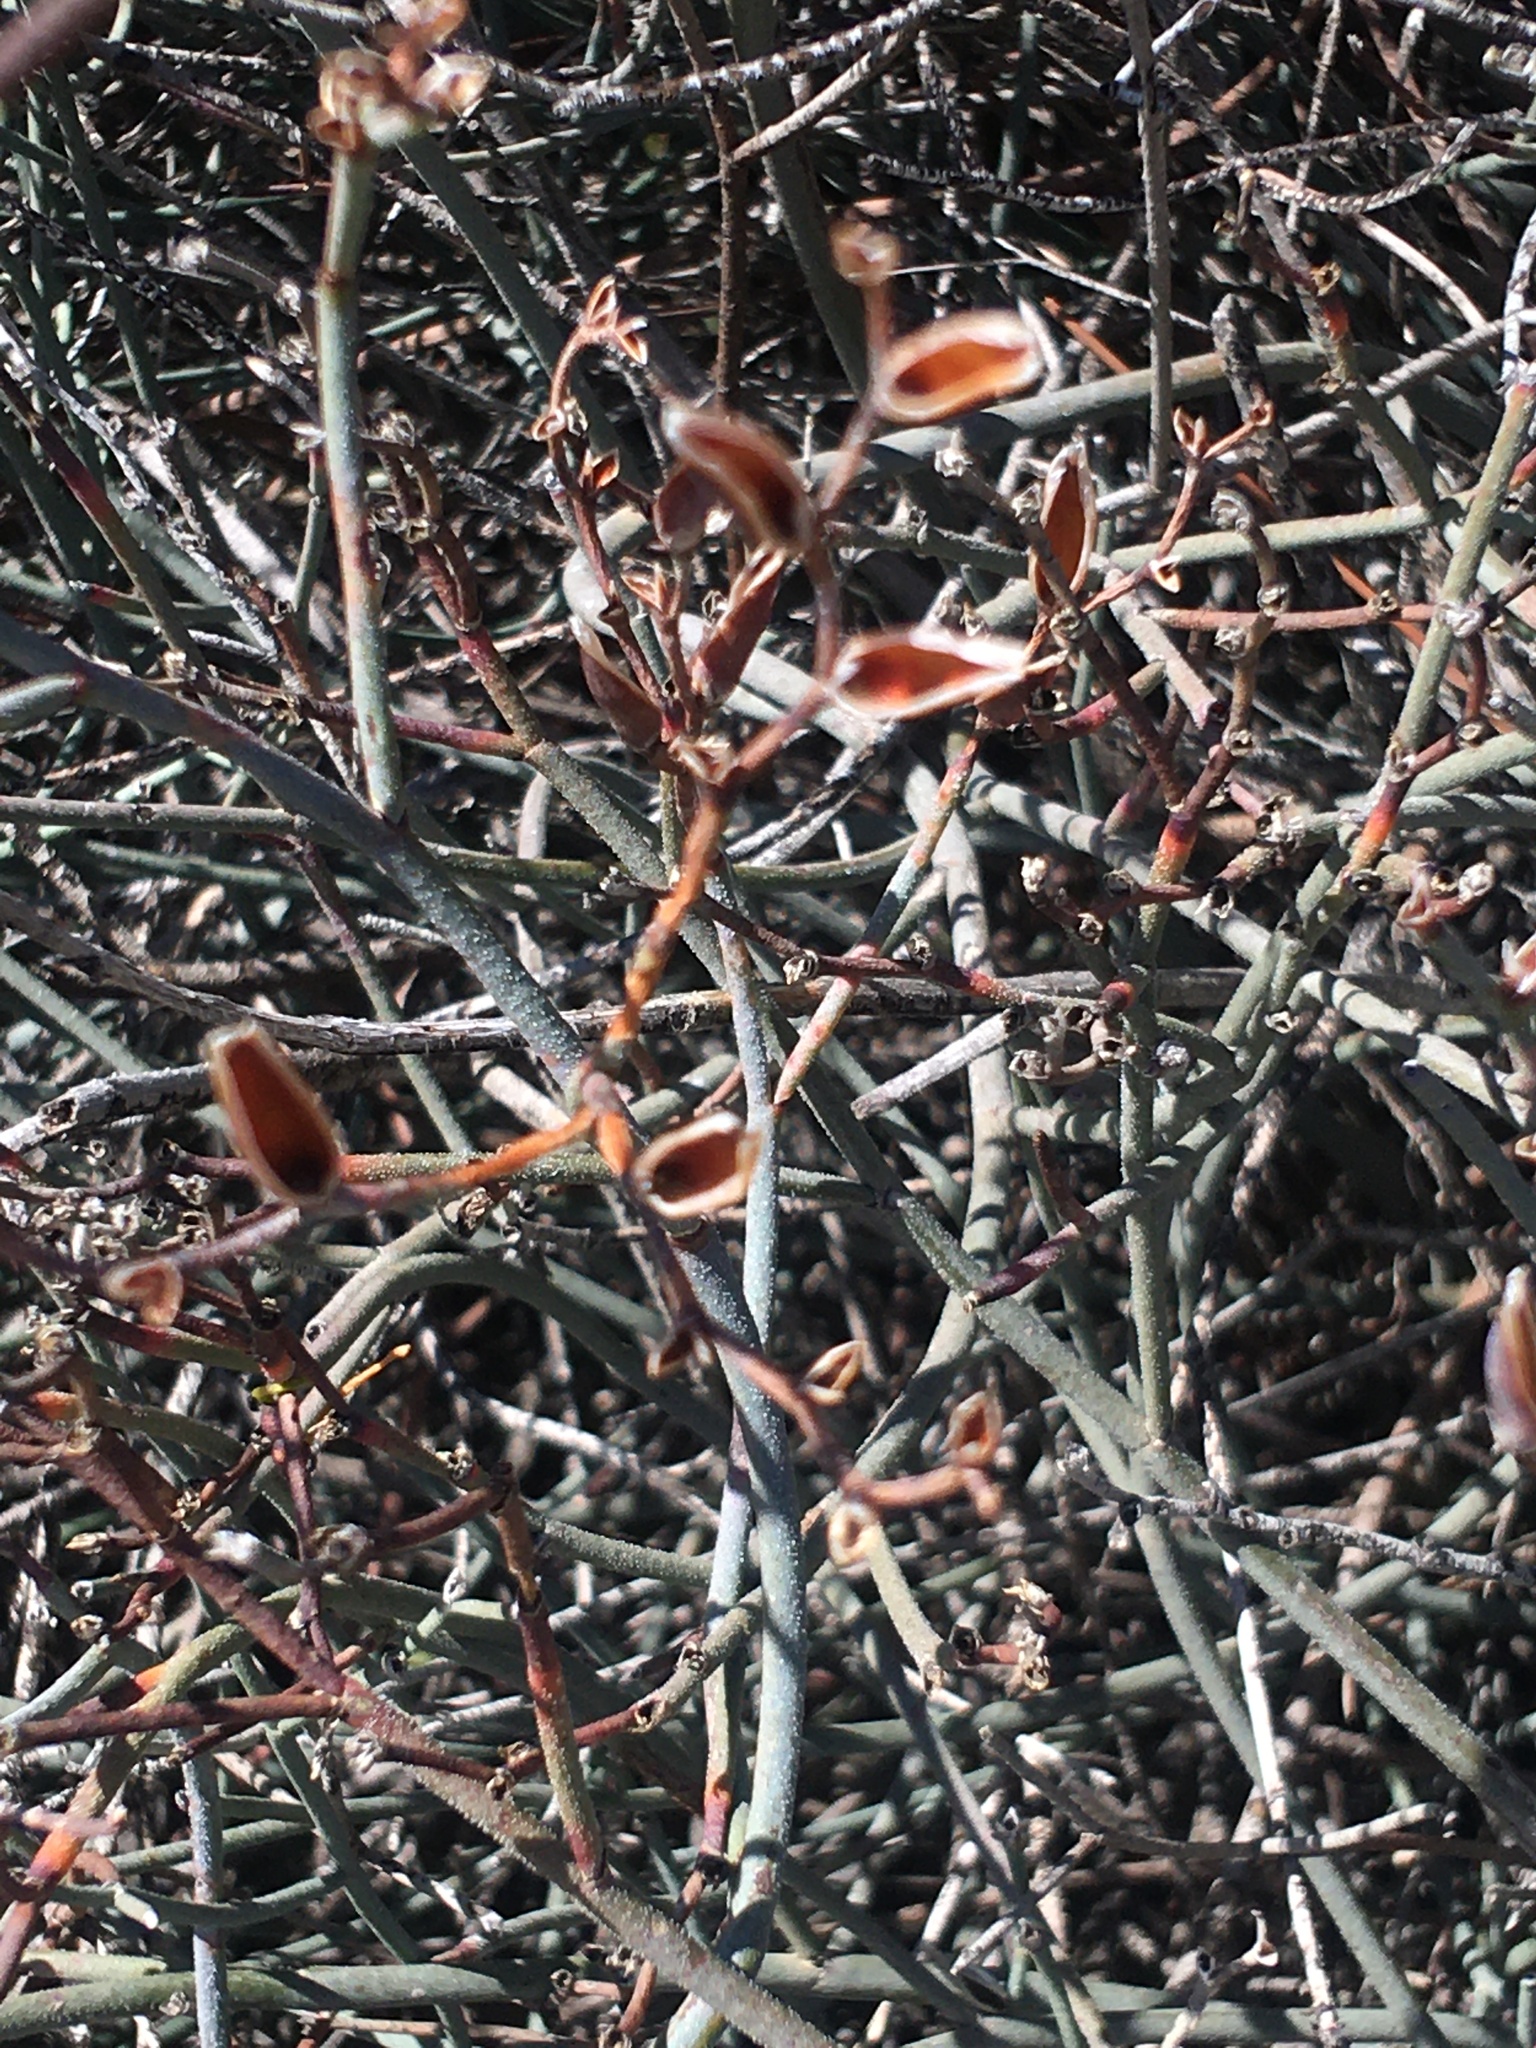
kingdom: Plantae
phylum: Tracheophyta
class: Magnoliopsida
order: Caryophyllales
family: Plumbaginaceae
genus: Limonium
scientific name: Limonium longifolium
